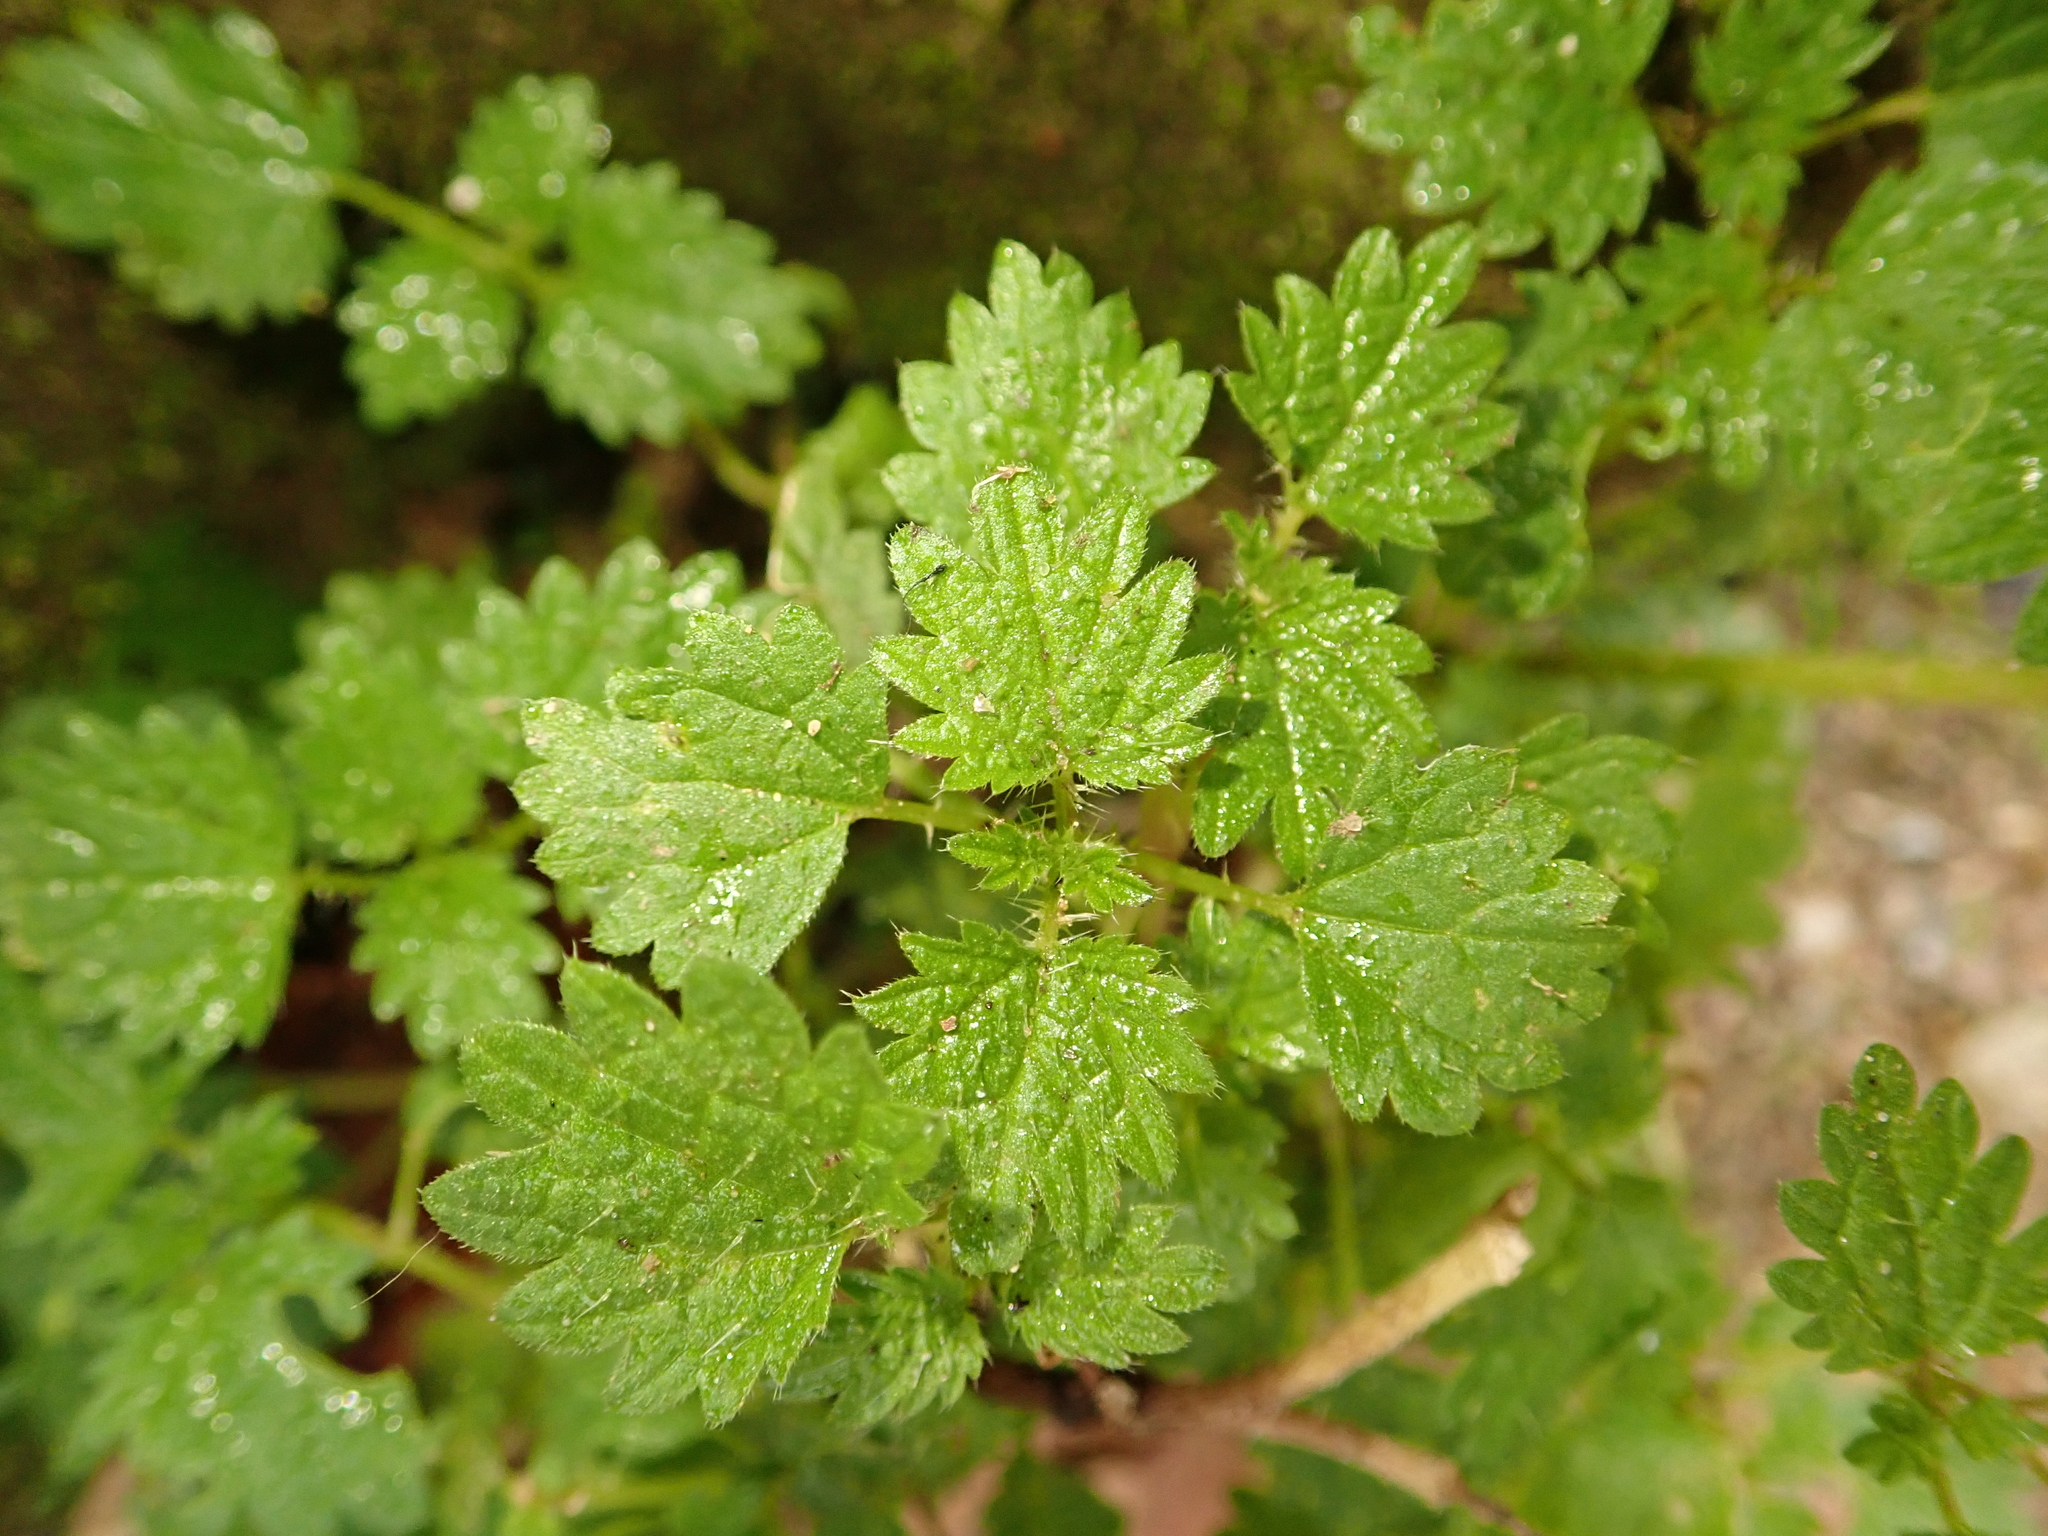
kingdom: Plantae
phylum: Tracheophyta
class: Magnoliopsida
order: Rosales
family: Urticaceae
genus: Urtica
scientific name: Urtica urens
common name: Dwarf nettle
